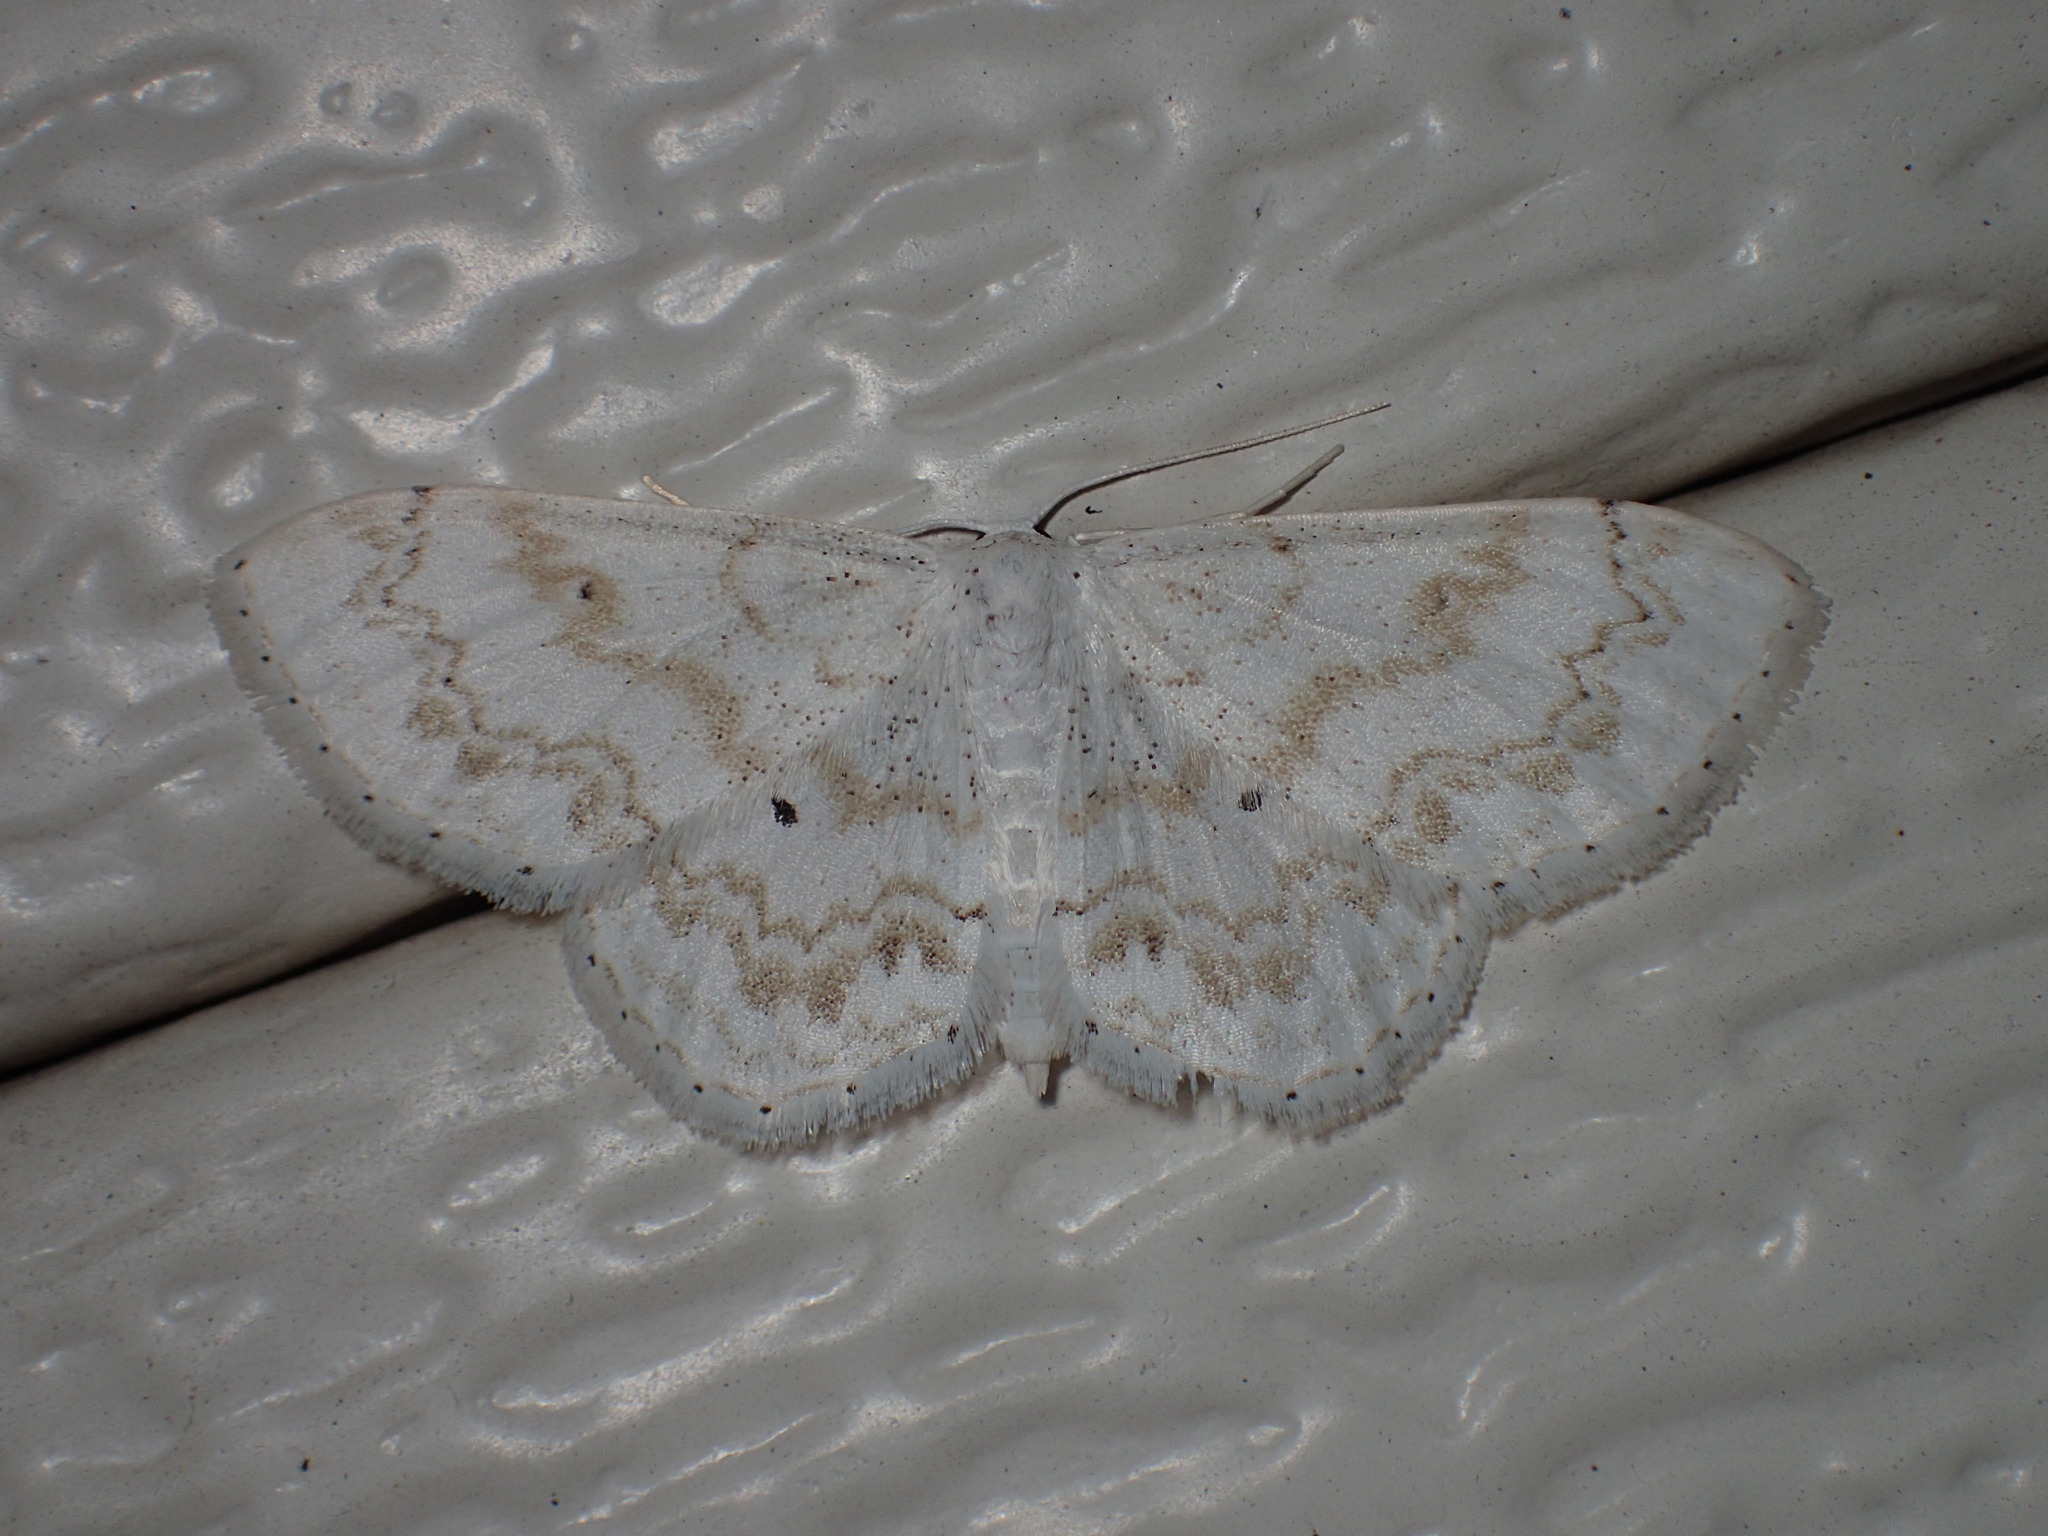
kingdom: Animalia
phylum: Arthropoda
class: Insecta
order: Lepidoptera
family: Geometridae
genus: Idaea
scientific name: Idaea obfusaria
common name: Rippled wave
